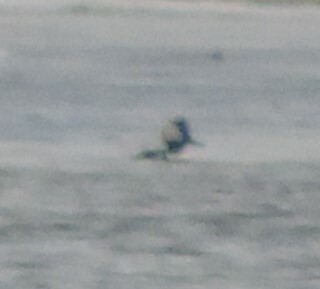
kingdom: Animalia
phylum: Chordata
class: Aves
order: Anseriformes
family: Anatidae
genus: Lophodytes
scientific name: Lophodytes cucullatus
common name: Hooded merganser
